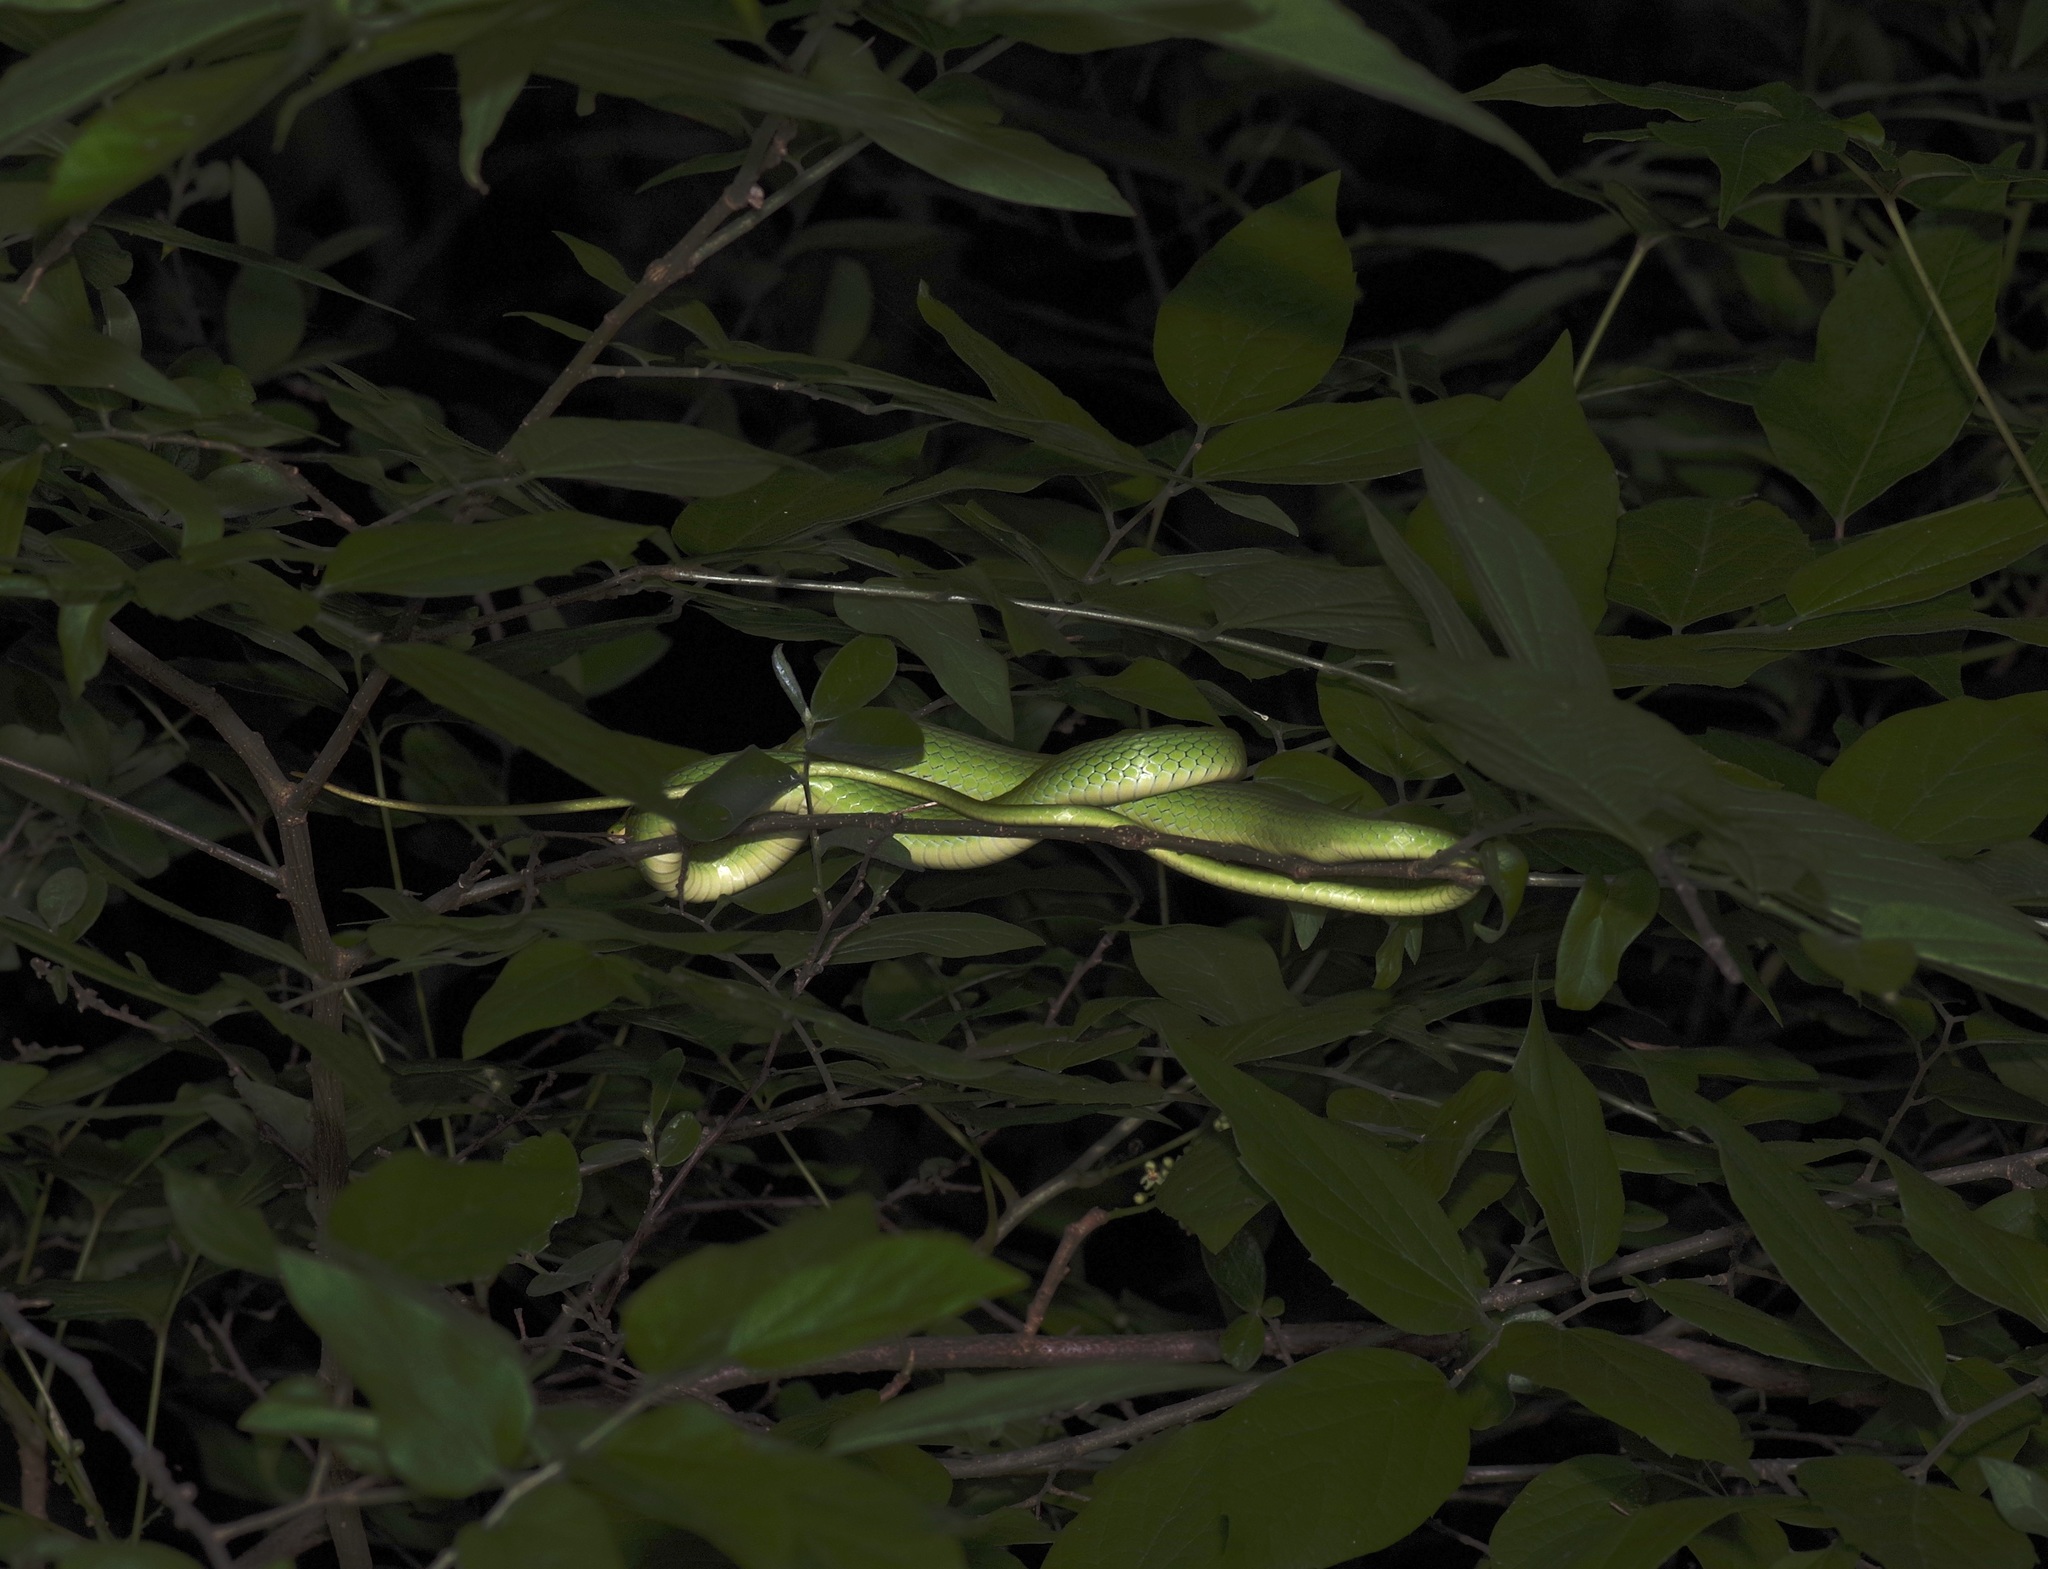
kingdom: Animalia
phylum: Chordata
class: Squamata
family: Colubridae
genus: Opheodrys
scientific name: Opheodrys aestivus
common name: Rough greensnake
